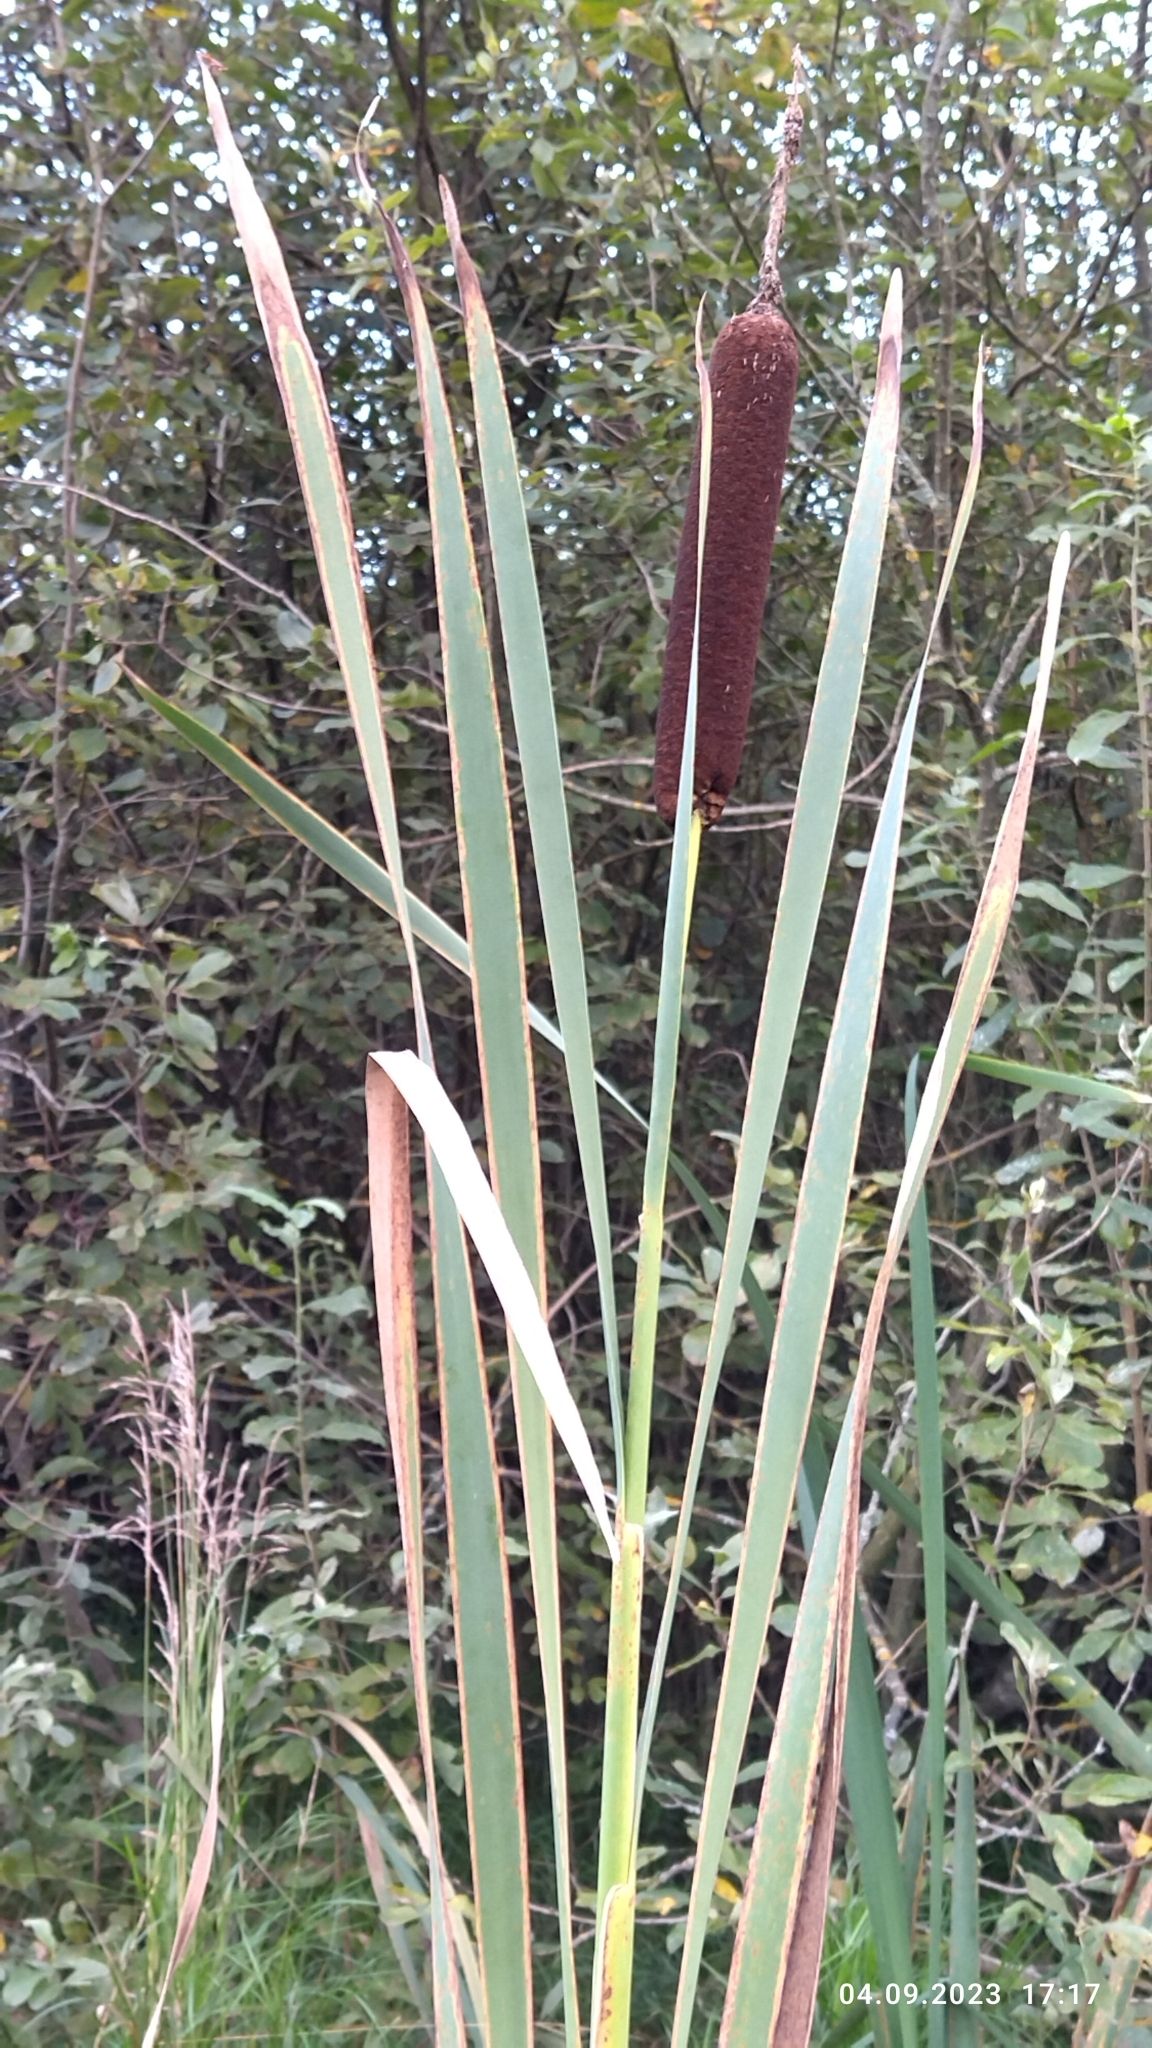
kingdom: Plantae
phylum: Tracheophyta
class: Liliopsida
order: Poales
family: Typhaceae
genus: Typha
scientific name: Typha latifolia
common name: Broadleaf cattail
